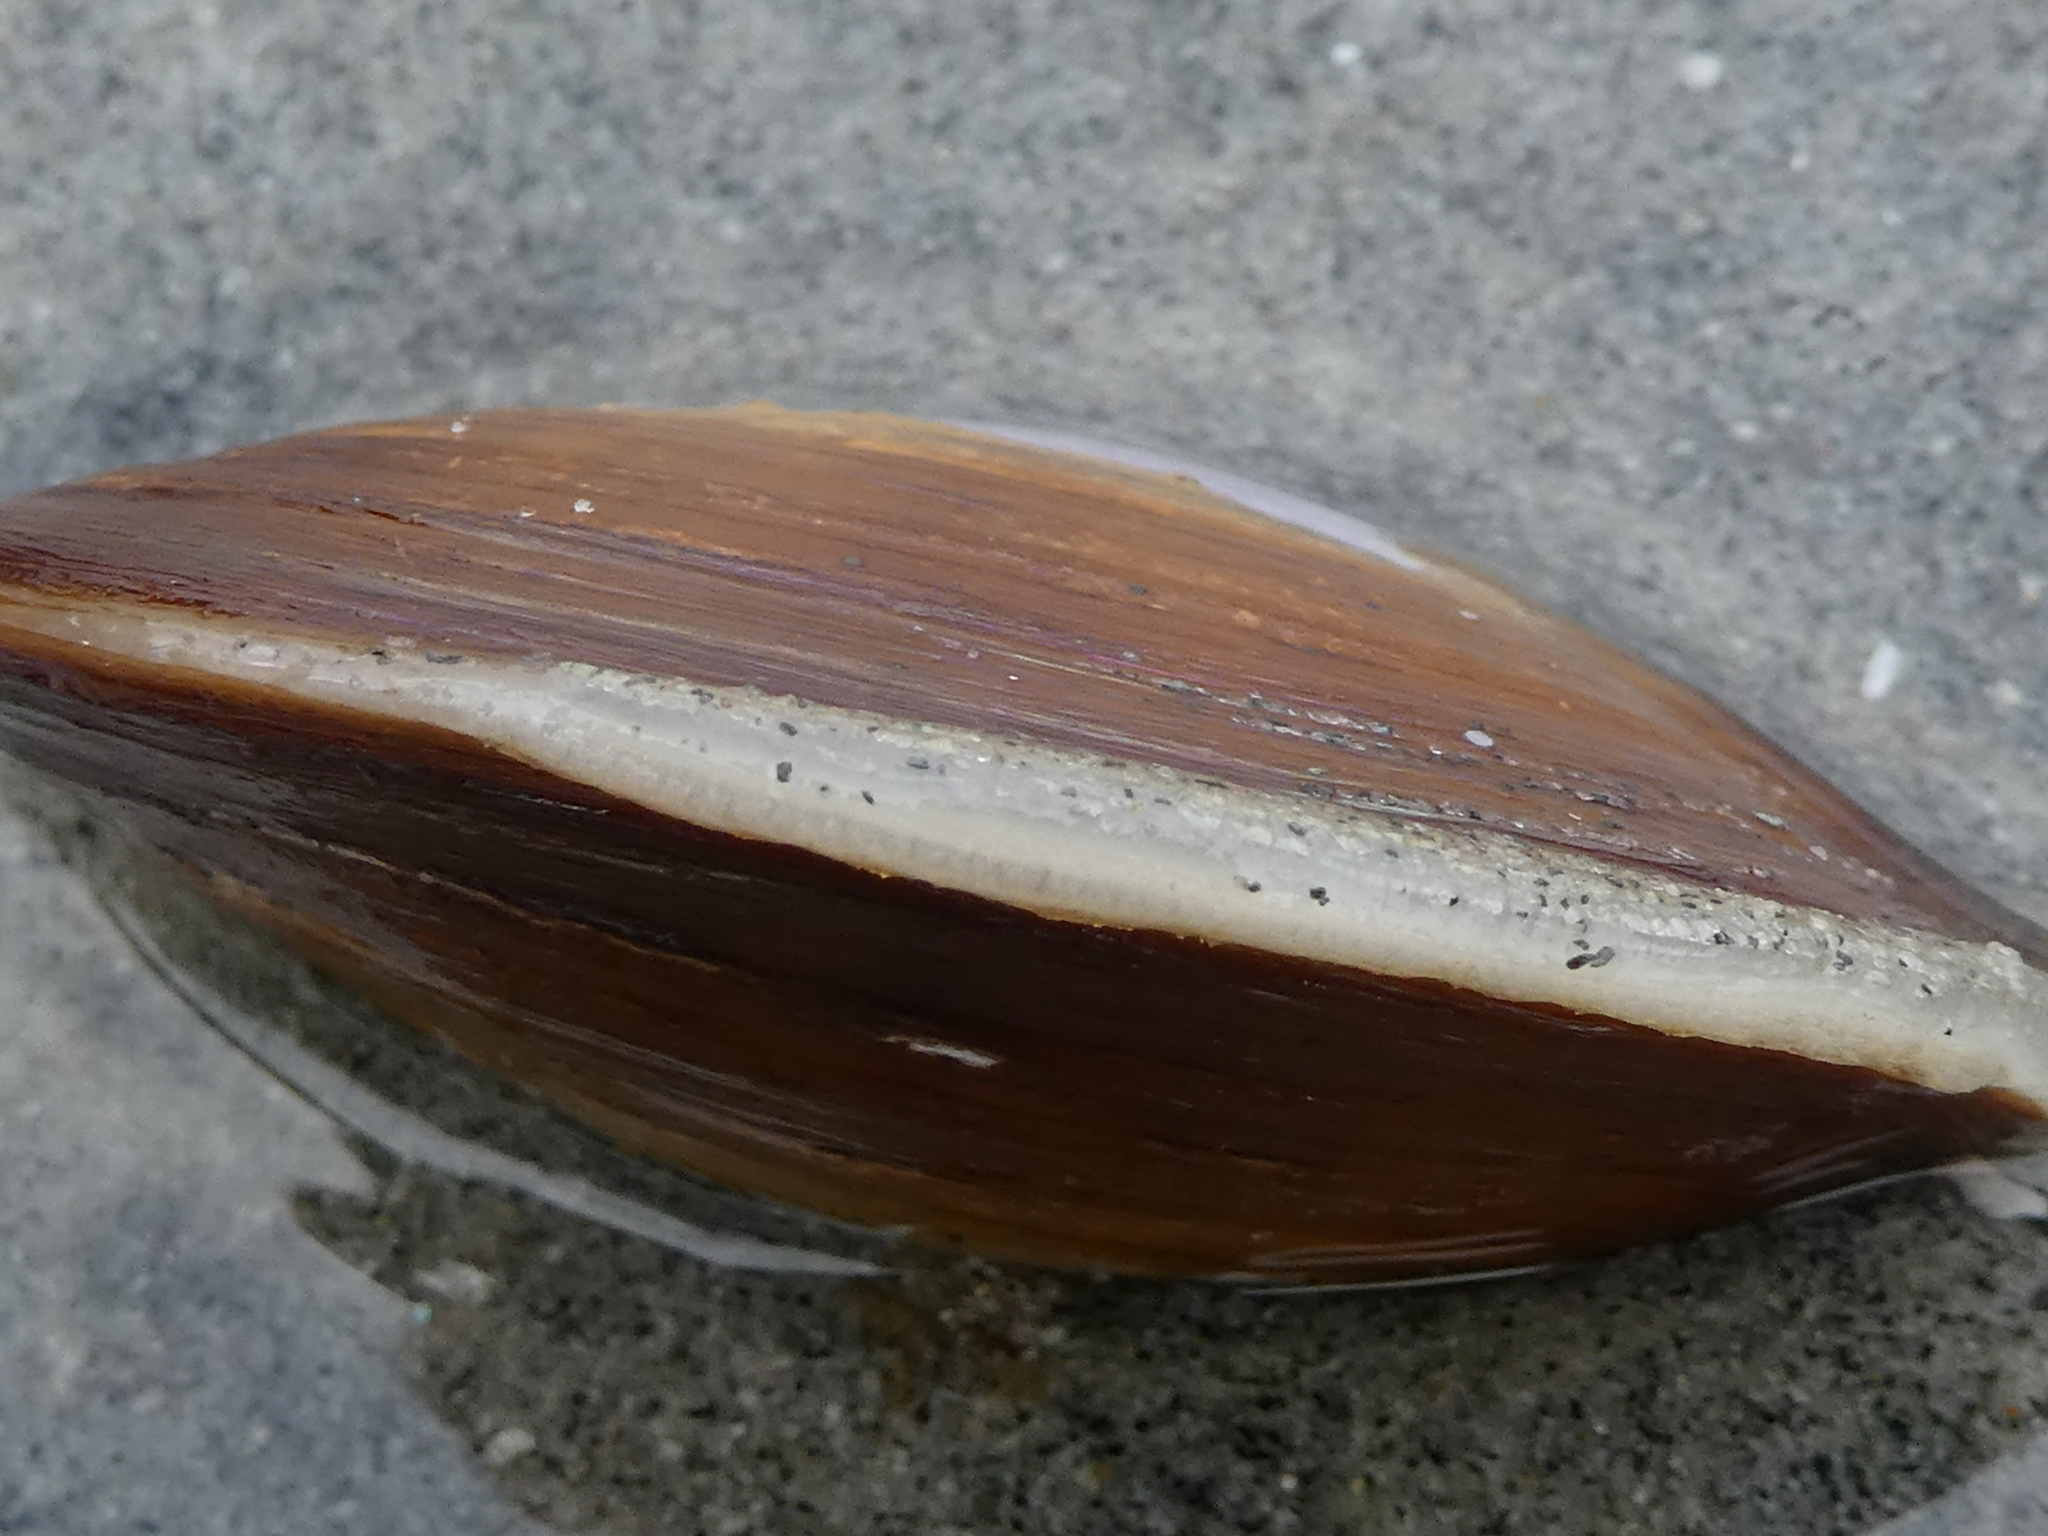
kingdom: Animalia
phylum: Mollusca
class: Bivalvia
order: Cardiida
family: Psammobiidae
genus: Nuttallia
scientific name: Nuttallia obscurata
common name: Purple mahogany-clam
